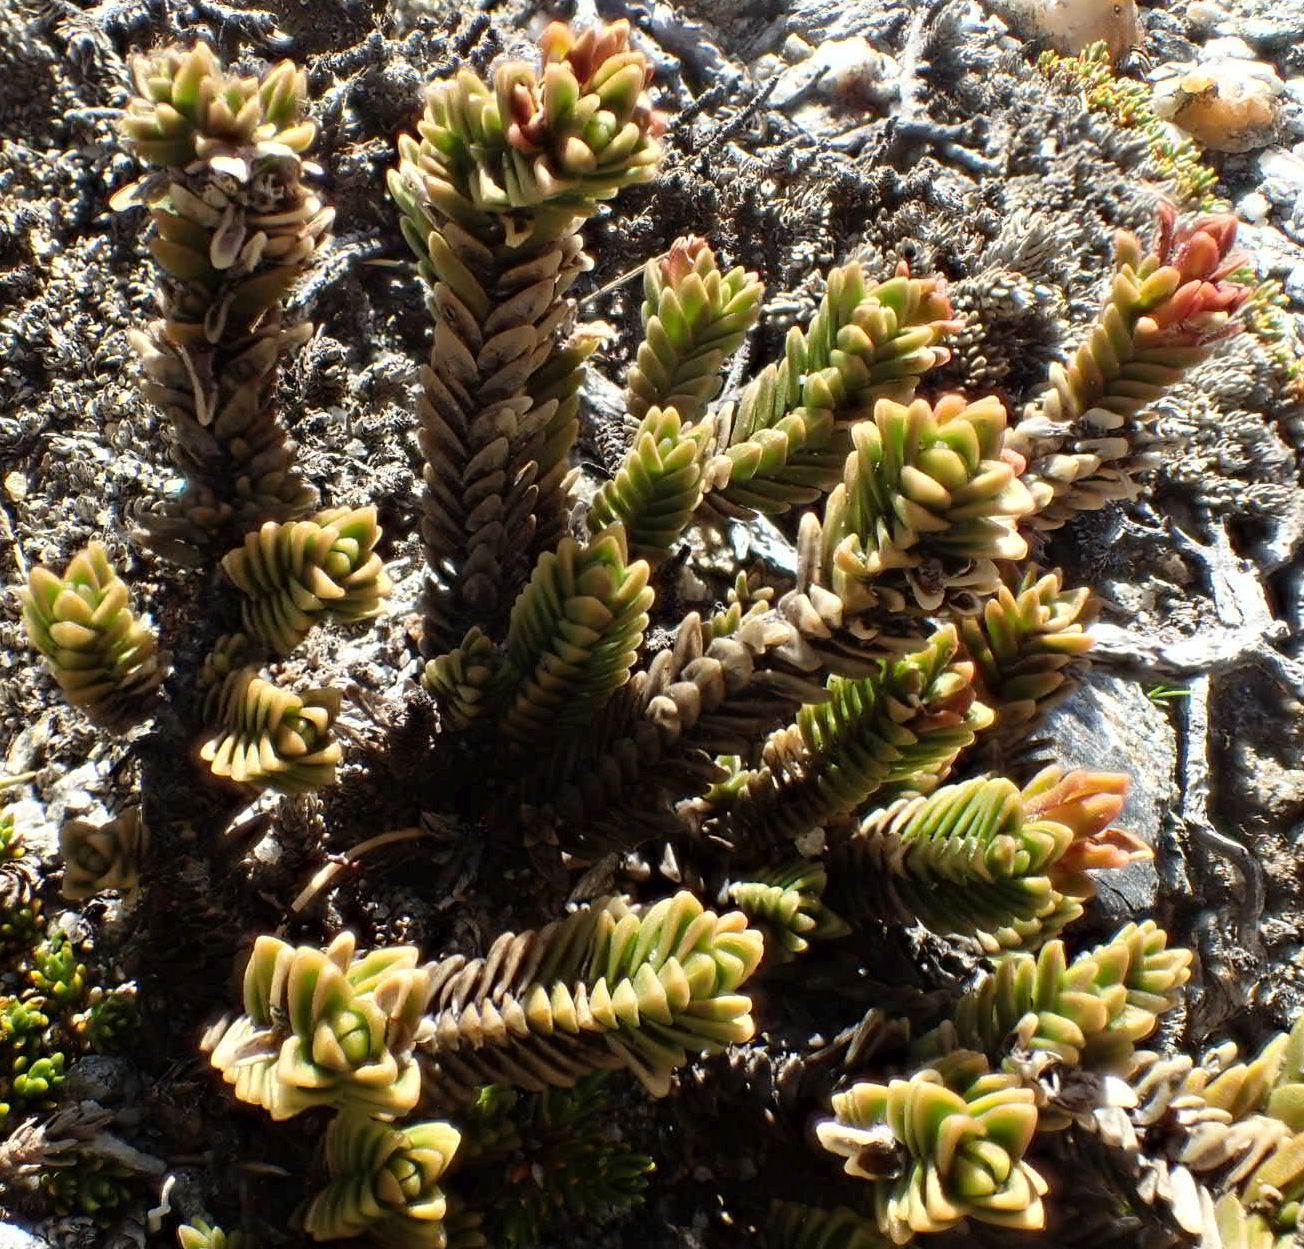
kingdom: Plantae
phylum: Tracheophyta
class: Magnoliopsida
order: Lamiales
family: Plantaginaceae
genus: Veronica
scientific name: Veronica densifolia
